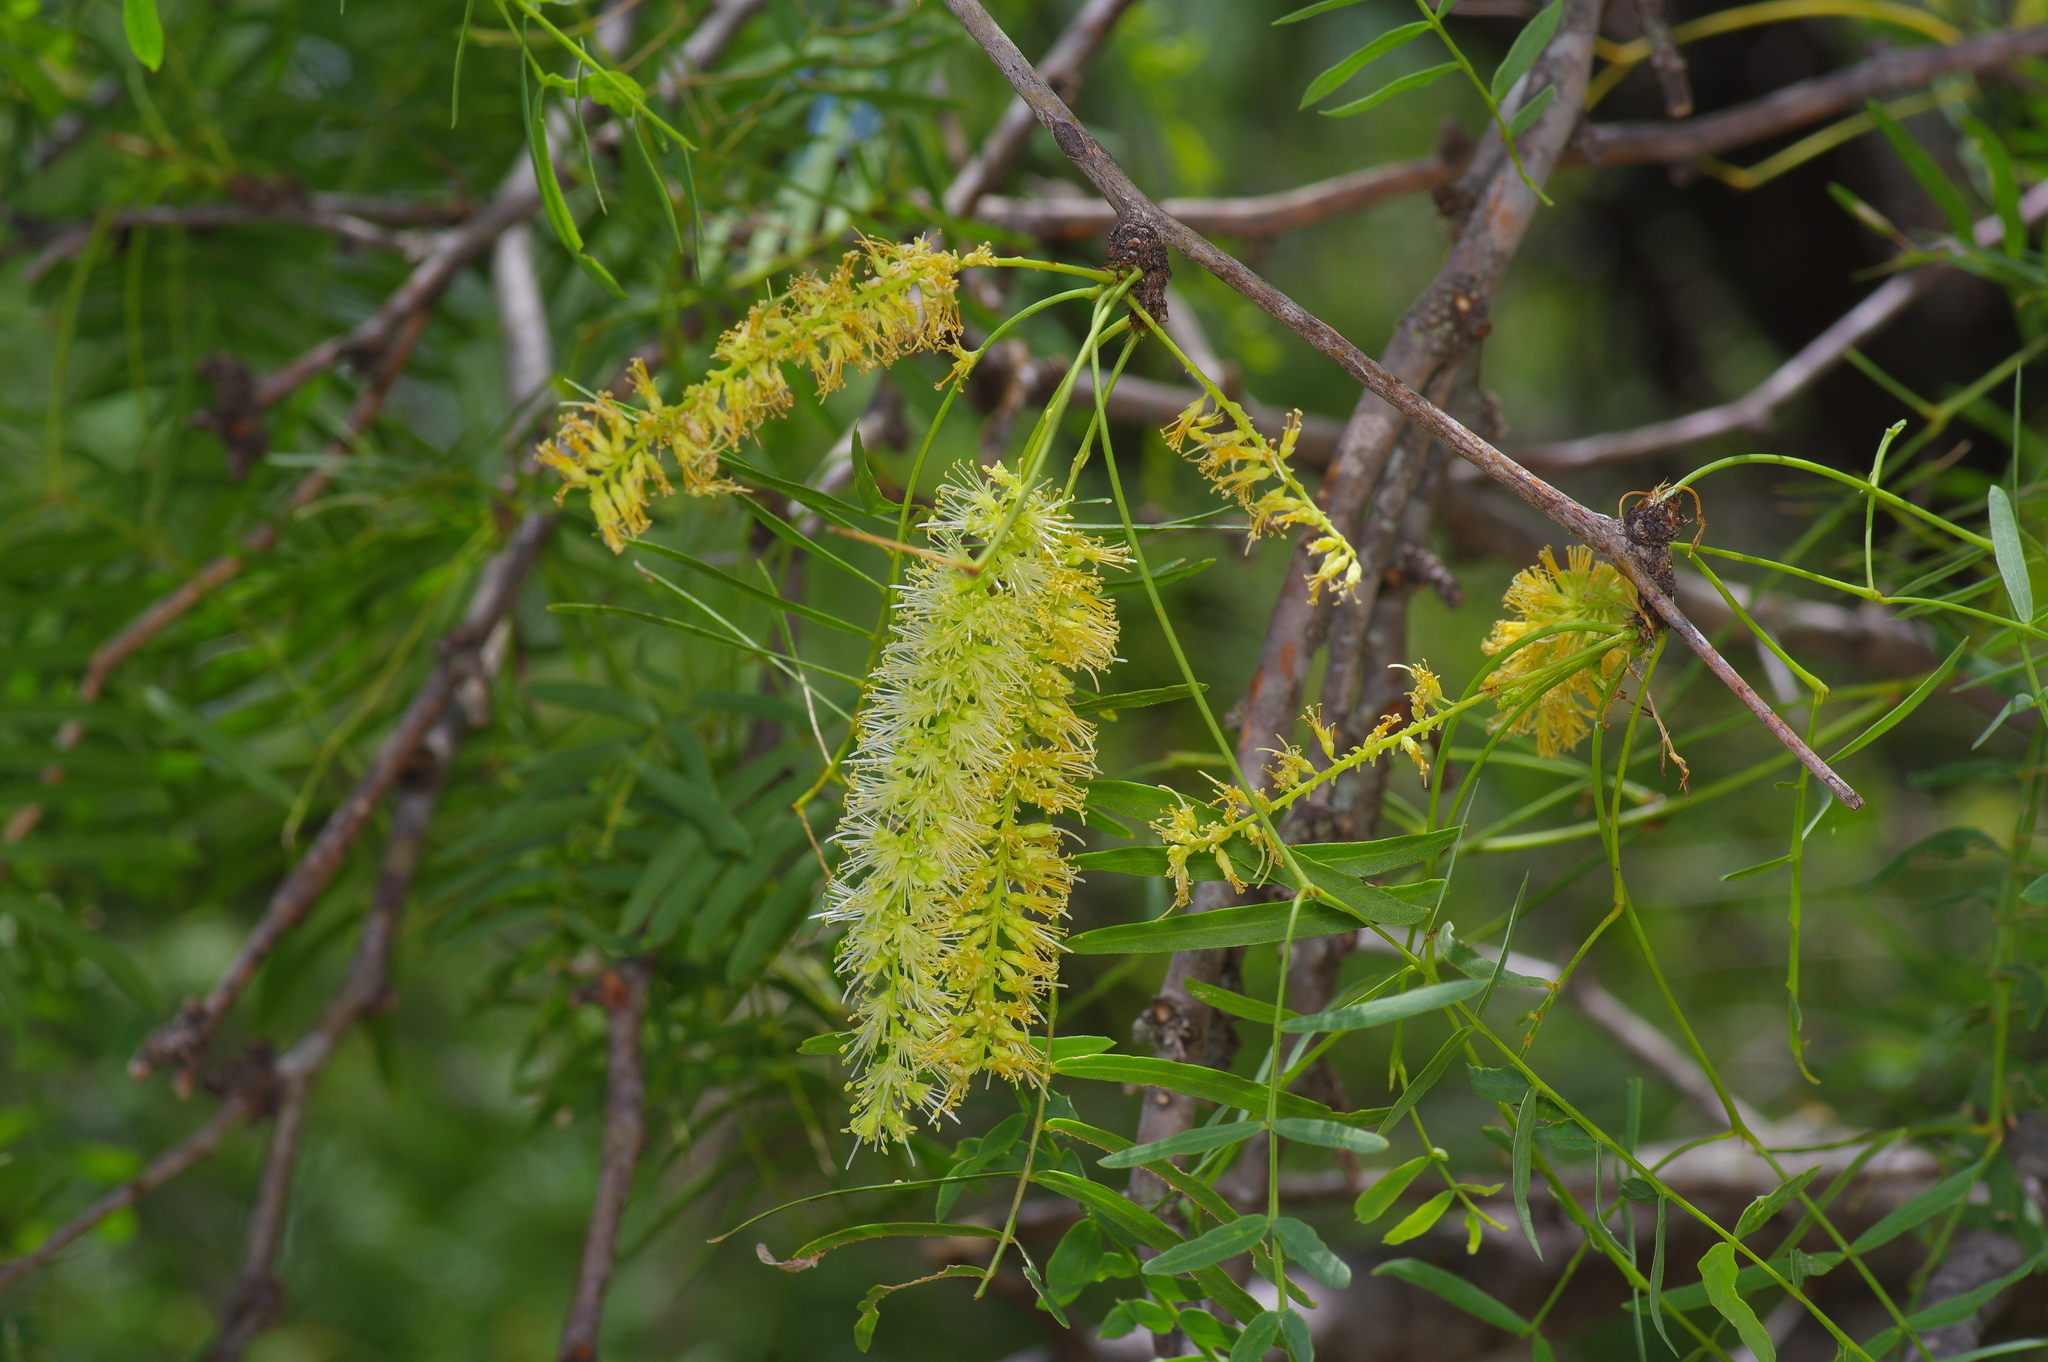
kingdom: Plantae
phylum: Tracheophyta
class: Magnoliopsida
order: Fabales
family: Fabaceae
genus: Prosopis
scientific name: Prosopis glandulosa
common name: Honey mesquite
